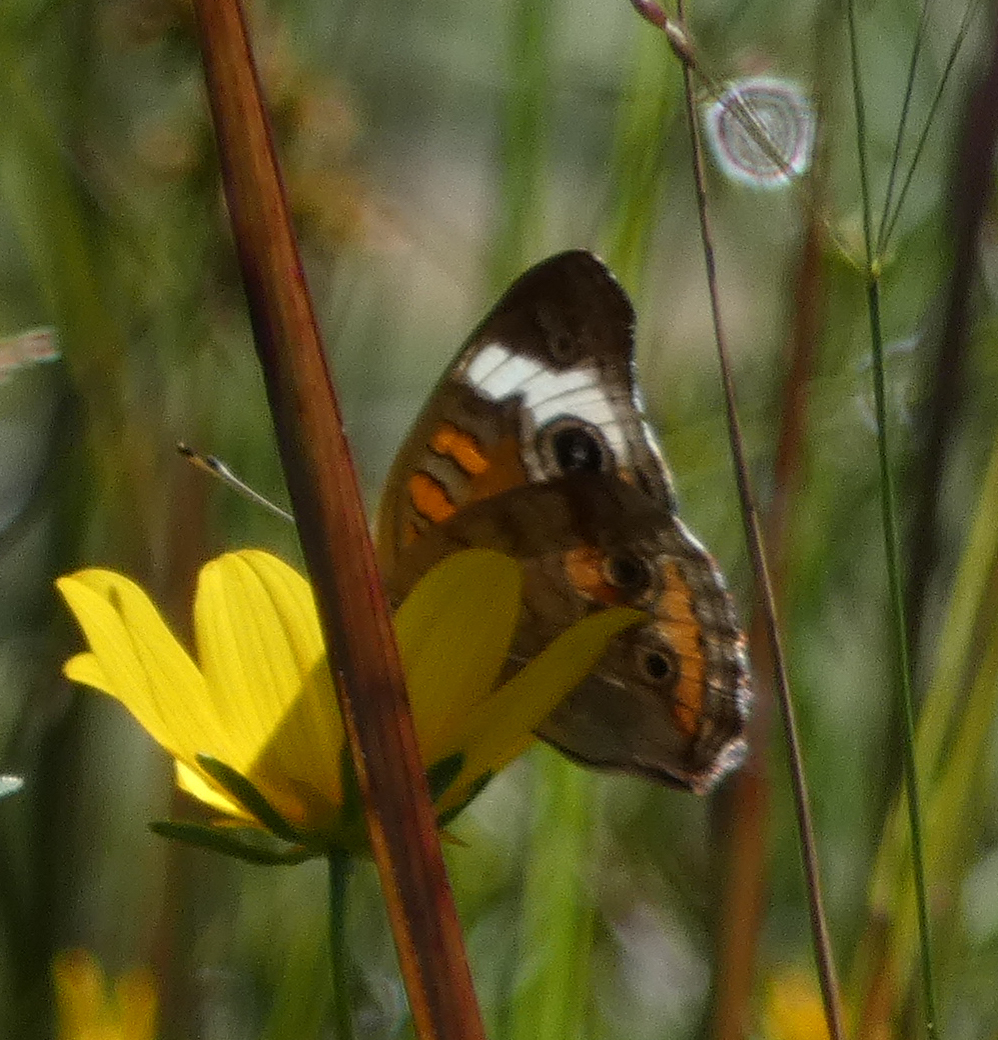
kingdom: Animalia
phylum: Arthropoda
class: Insecta
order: Lepidoptera
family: Nymphalidae
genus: Junonia
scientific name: Junonia coenia
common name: Common buckeye
